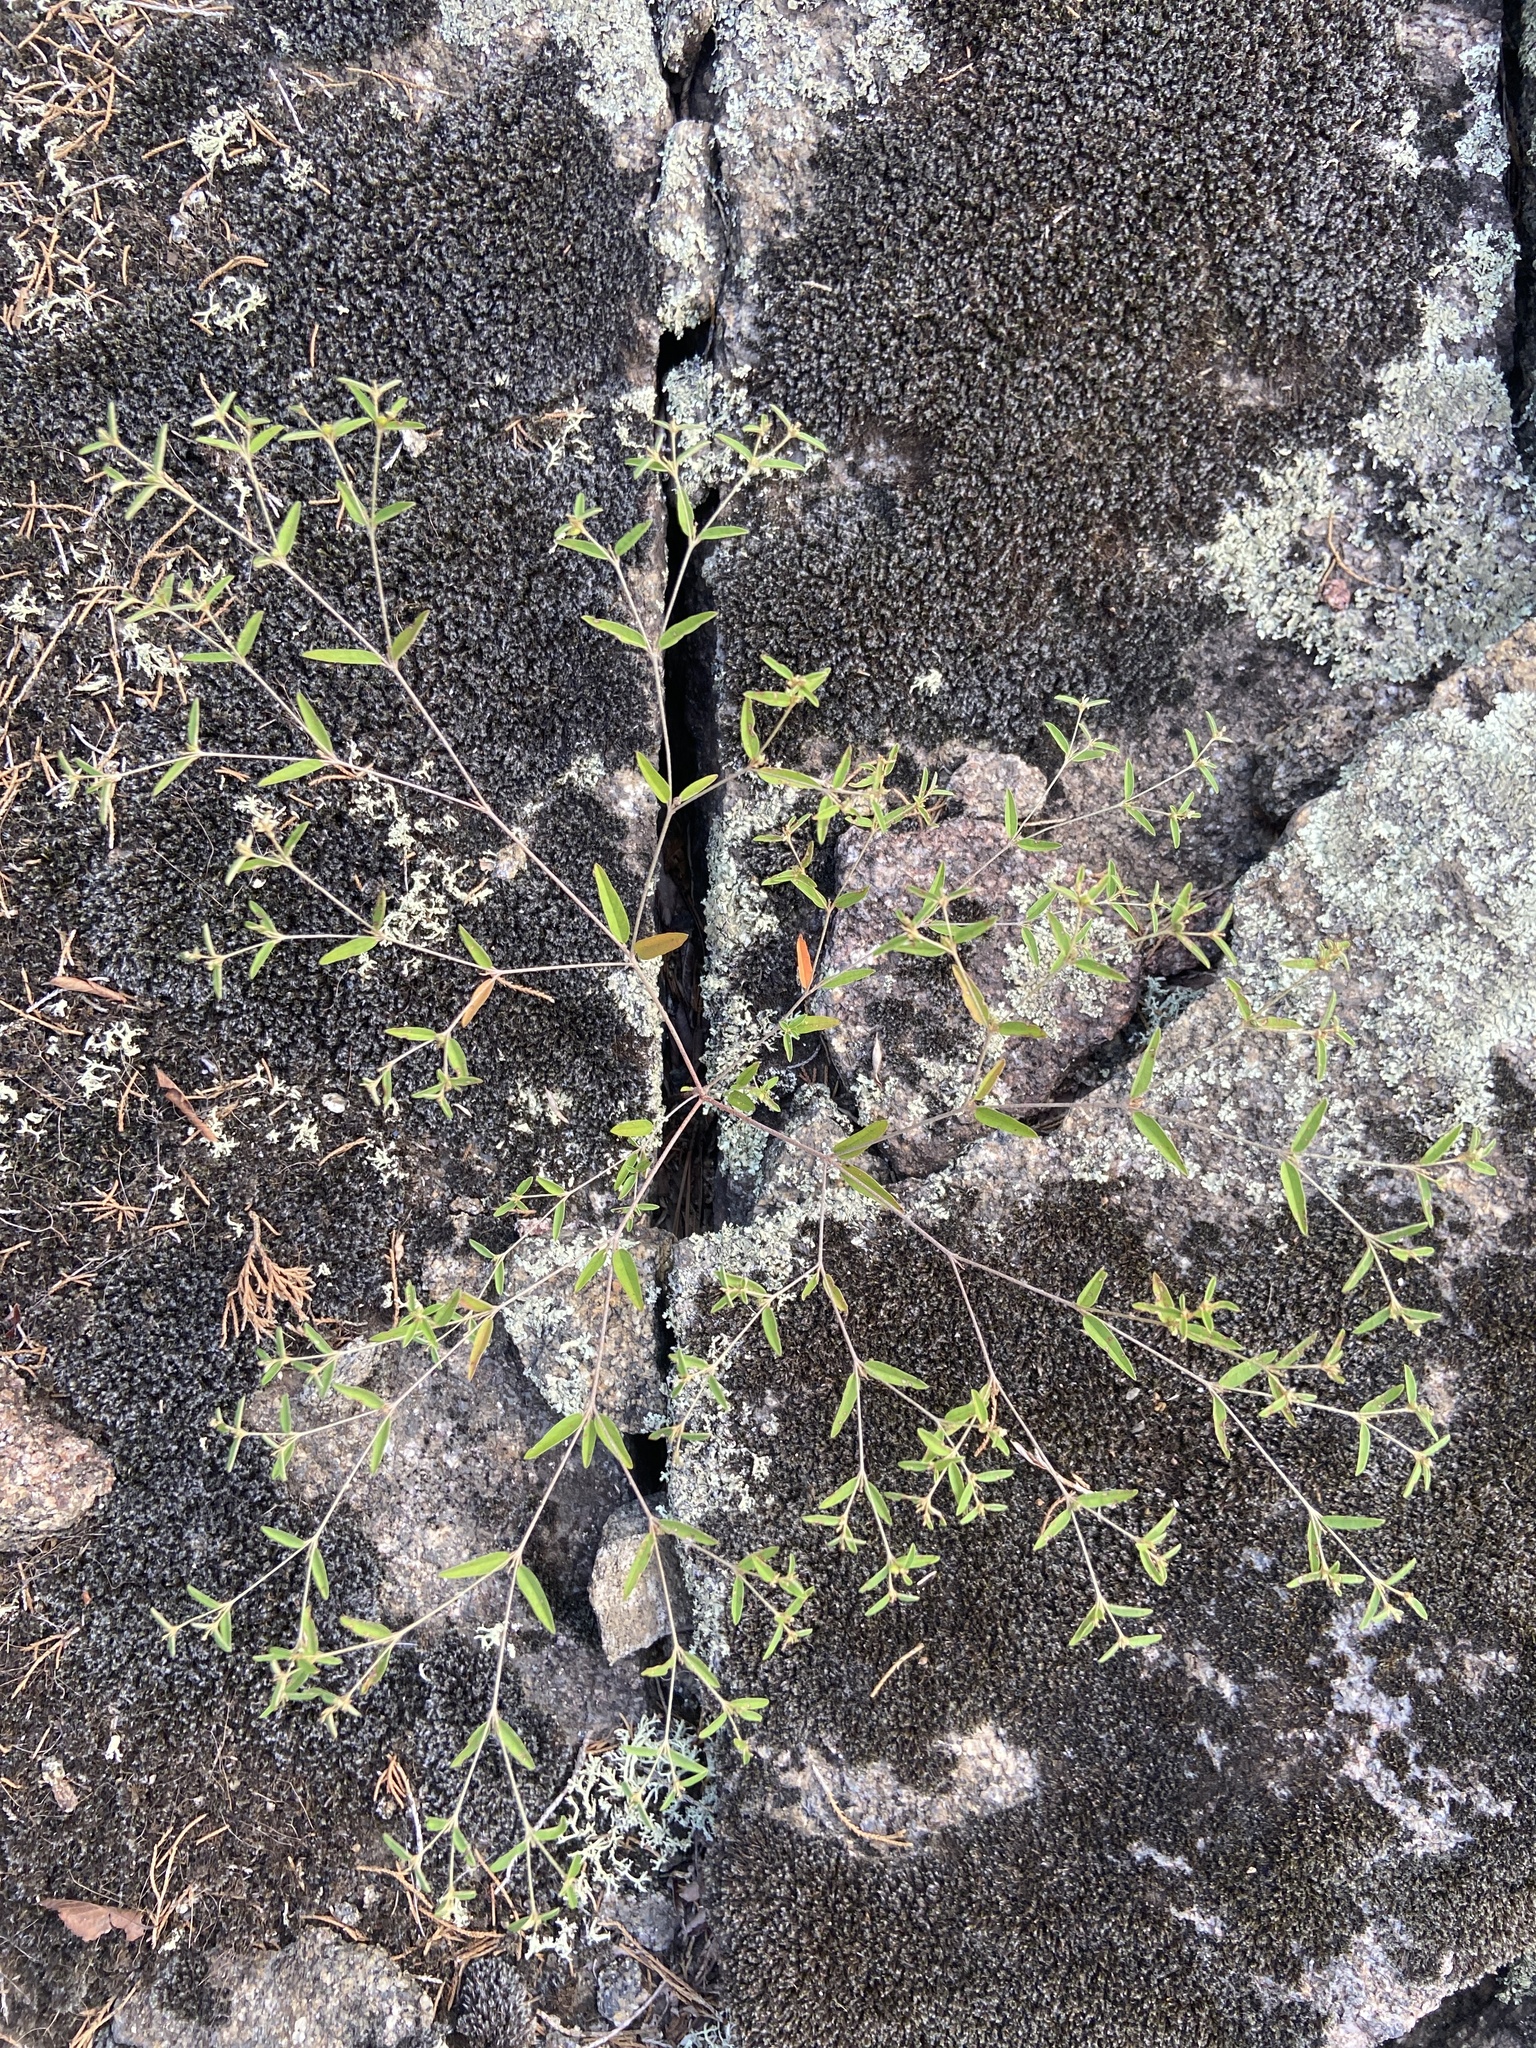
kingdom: Plantae
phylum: Tracheophyta
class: Magnoliopsida
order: Malpighiales
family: Euphorbiaceae
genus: Croton
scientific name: Croton michauxii
